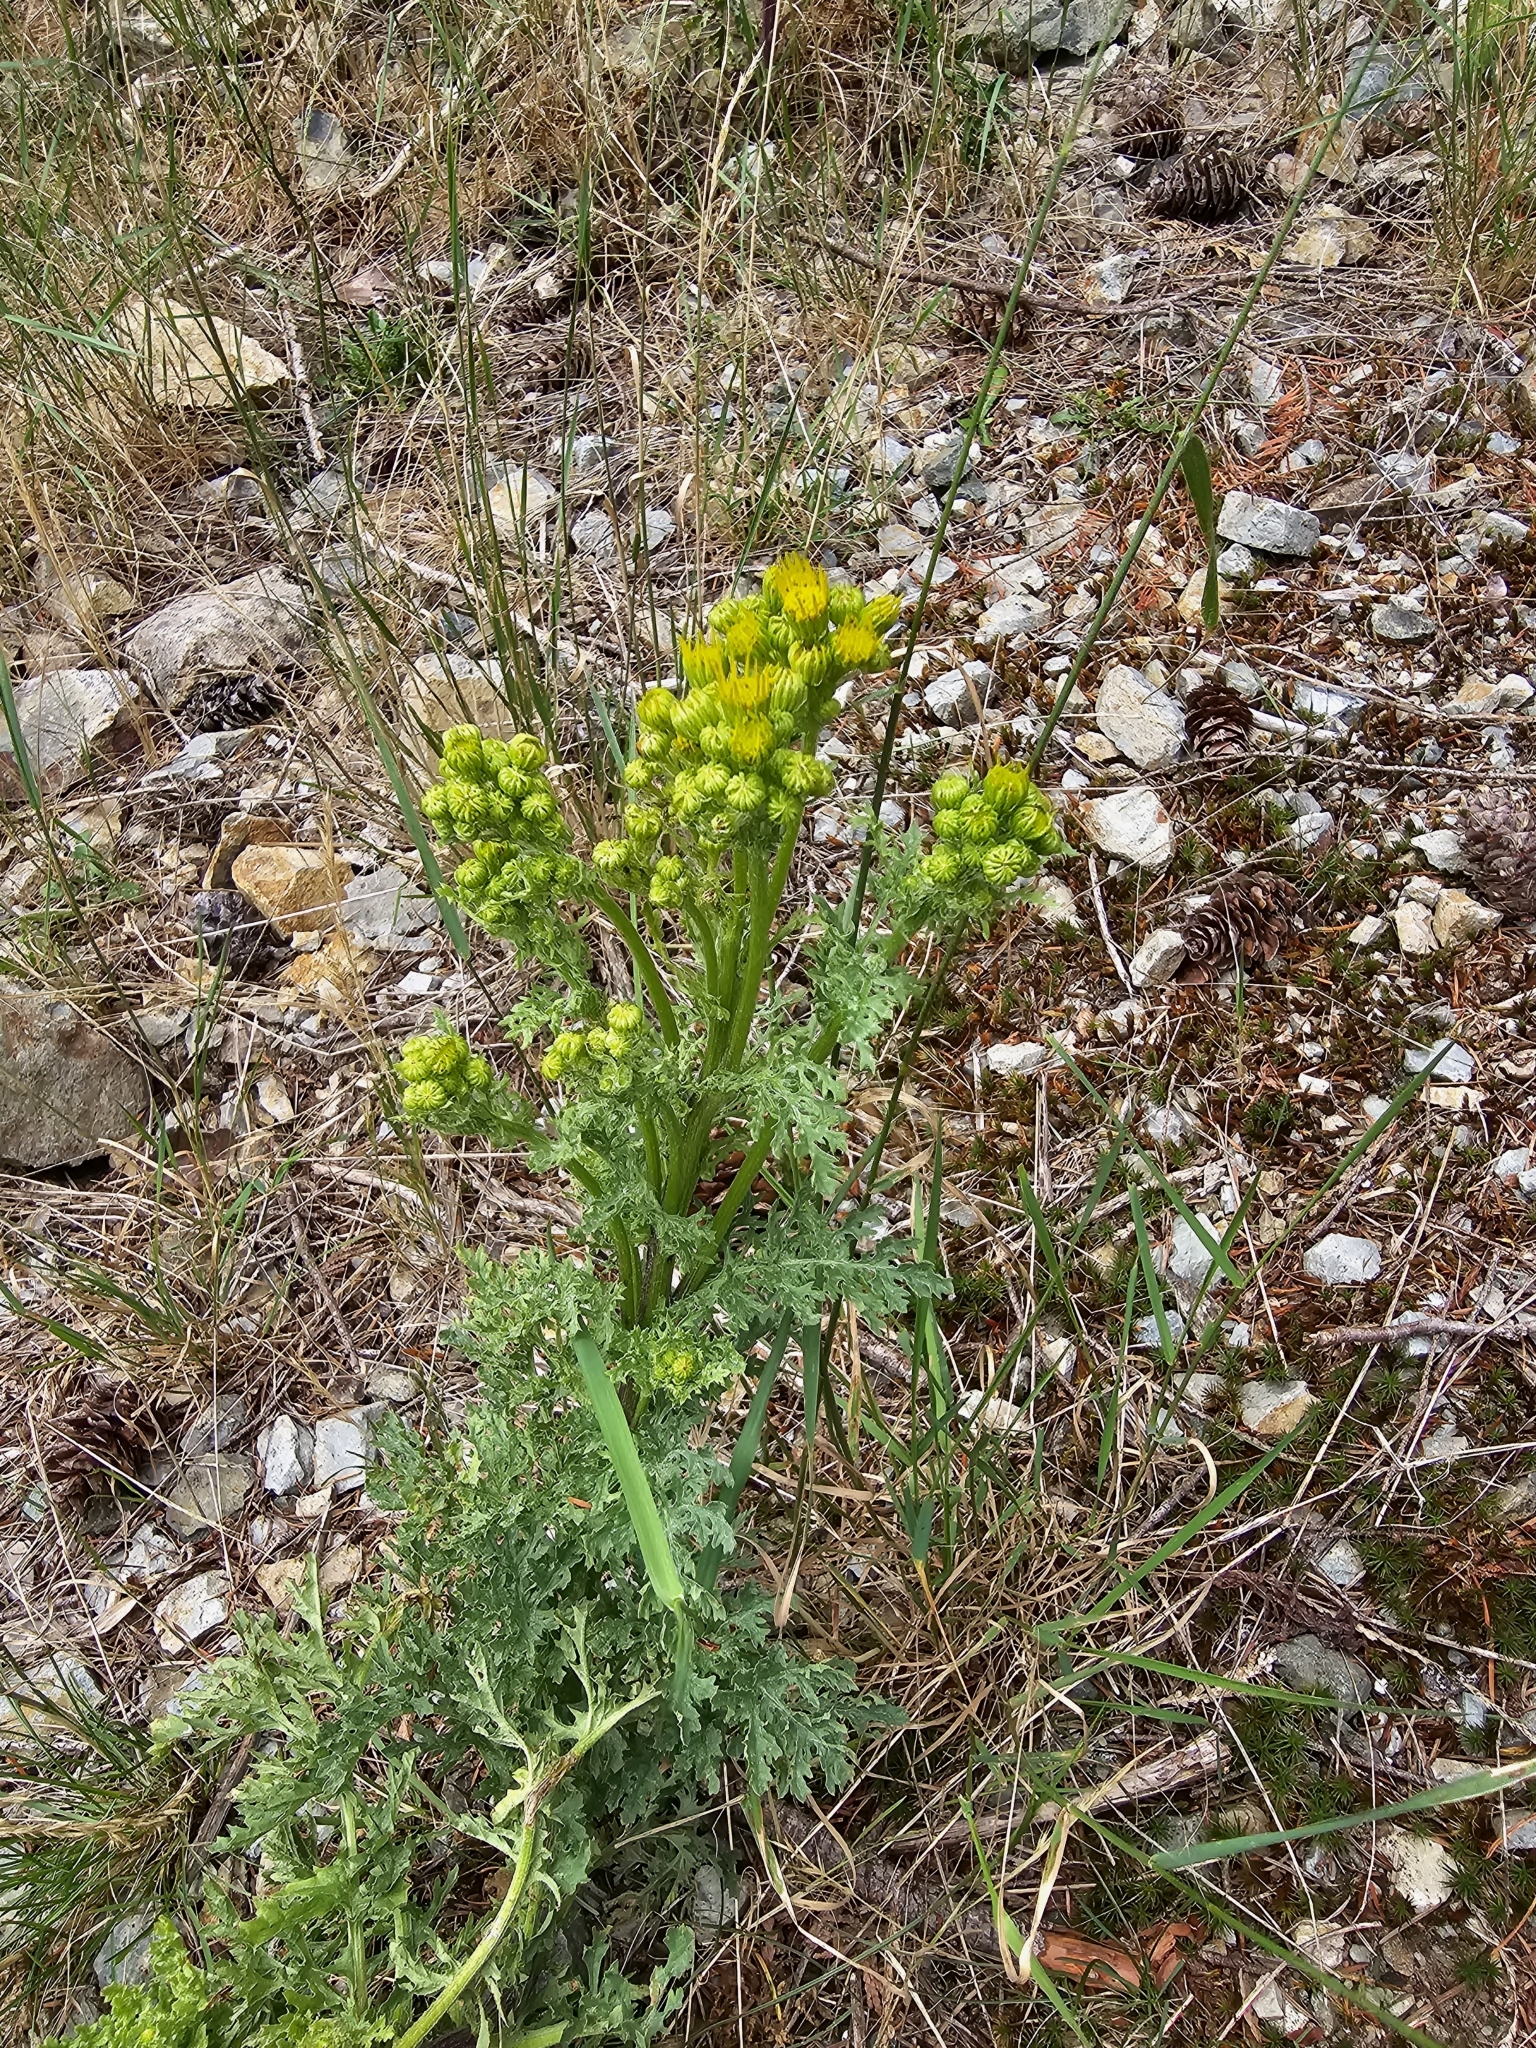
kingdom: Plantae
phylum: Tracheophyta
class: Magnoliopsida
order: Asterales
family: Asteraceae
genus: Jacobaea
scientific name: Jacobaea vulgaris
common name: Stinking willie
